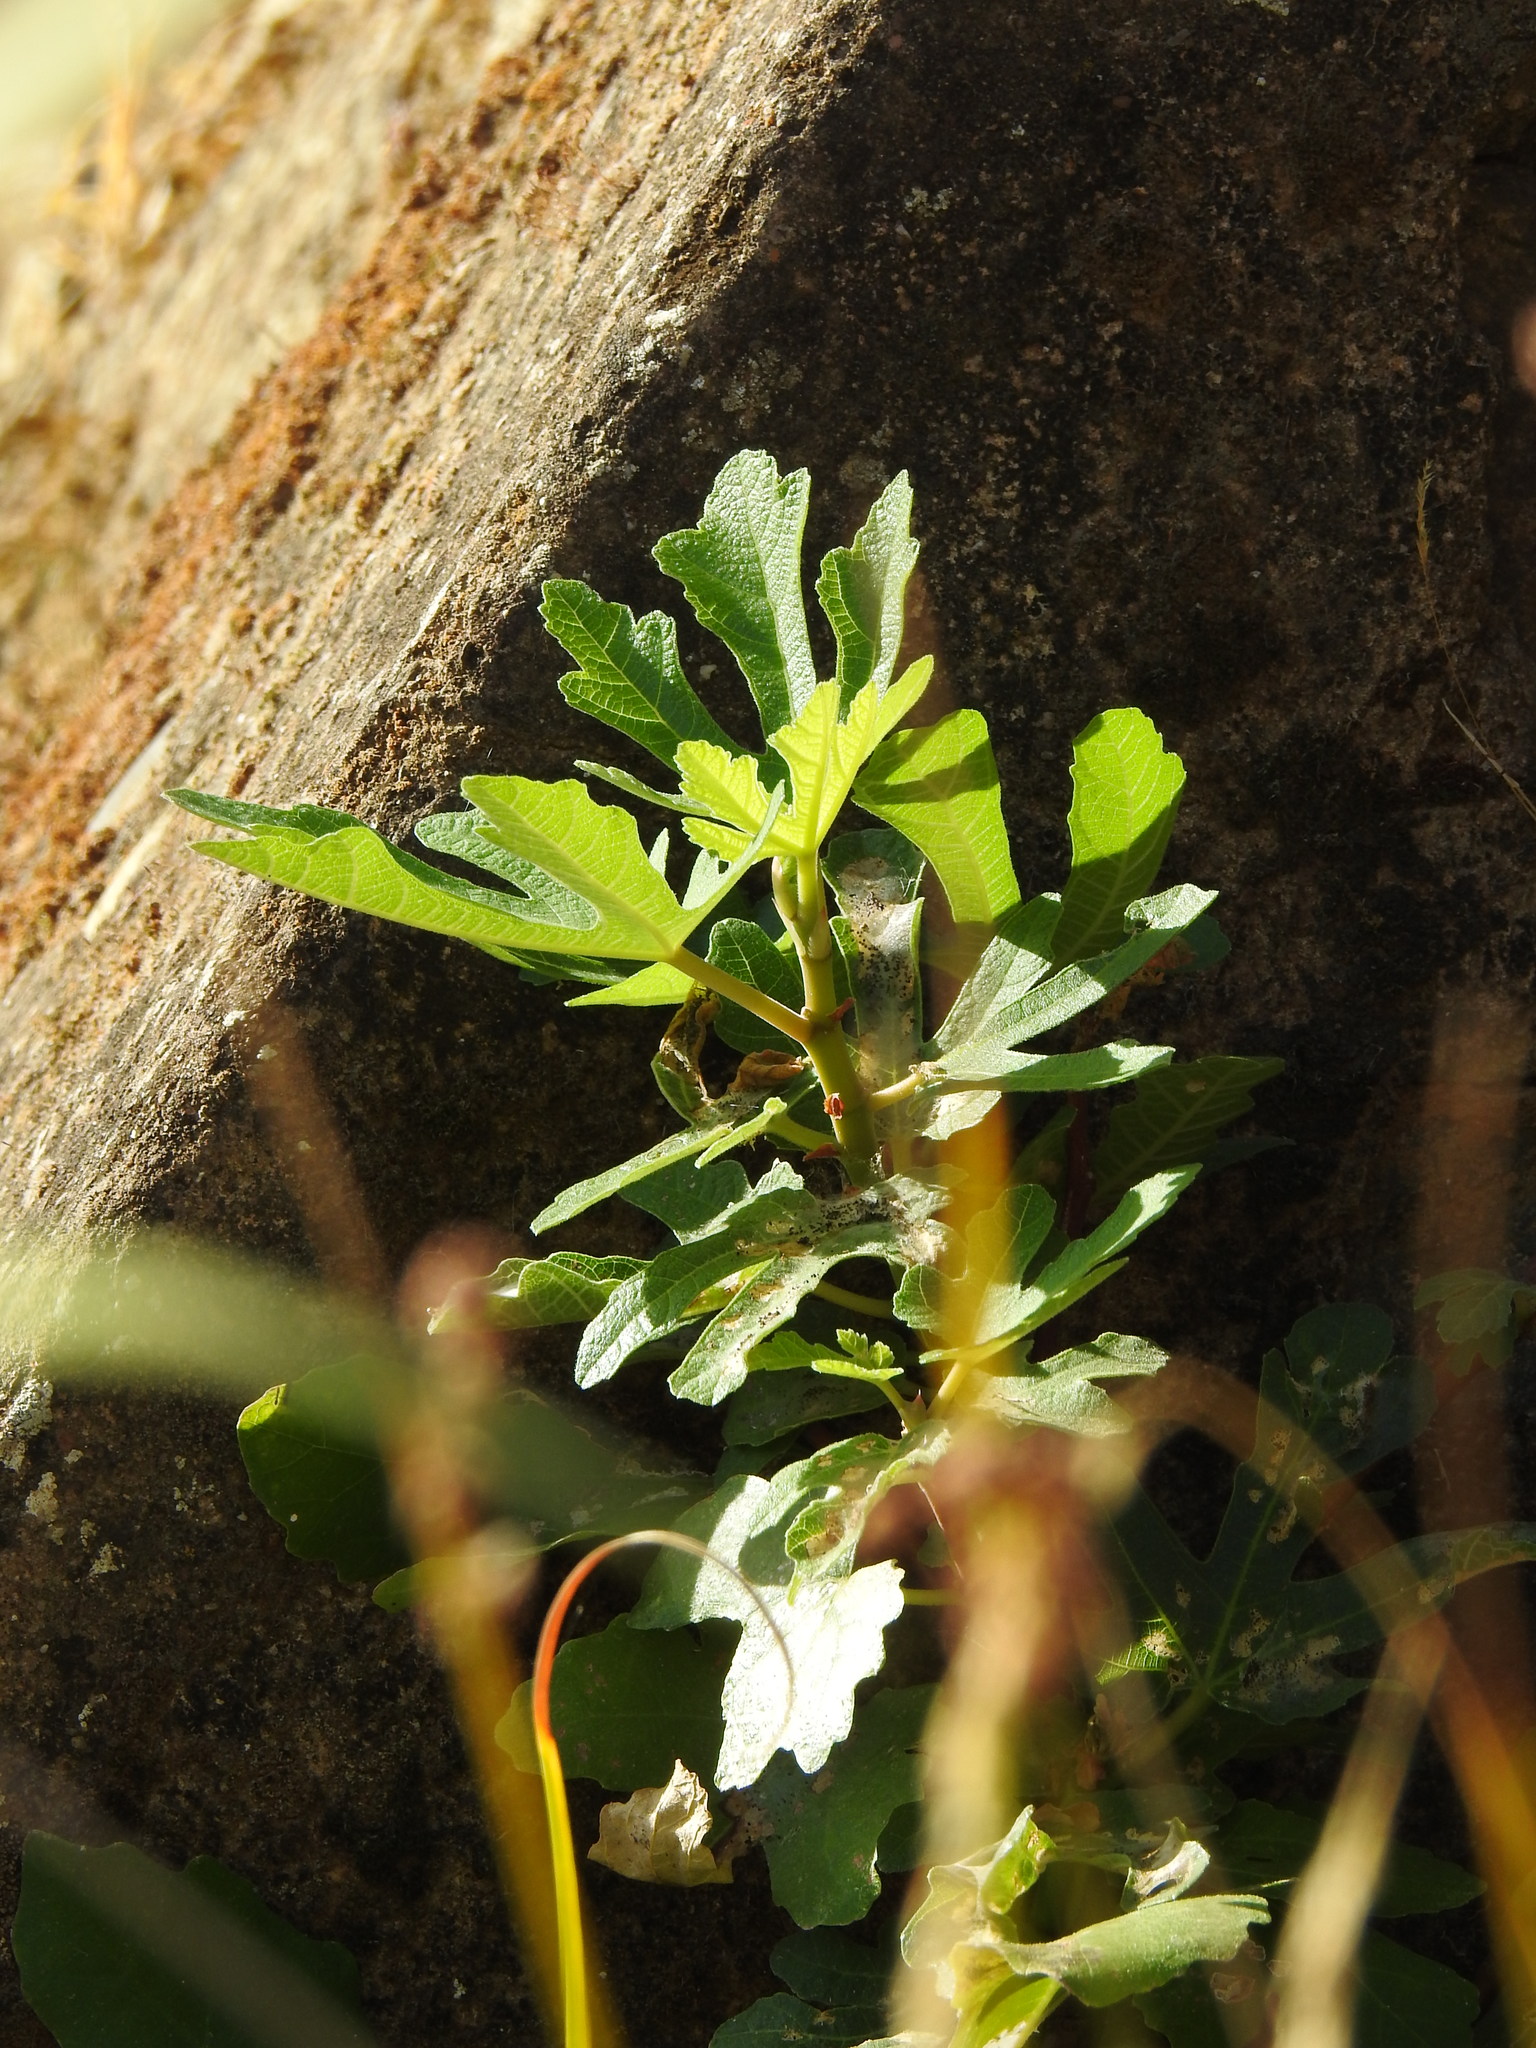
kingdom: Plantae
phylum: Tracheophyta
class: Magnoliopsida
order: Rosales
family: Moraceae
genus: Ficus
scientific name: Ficus carica
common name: Fig
